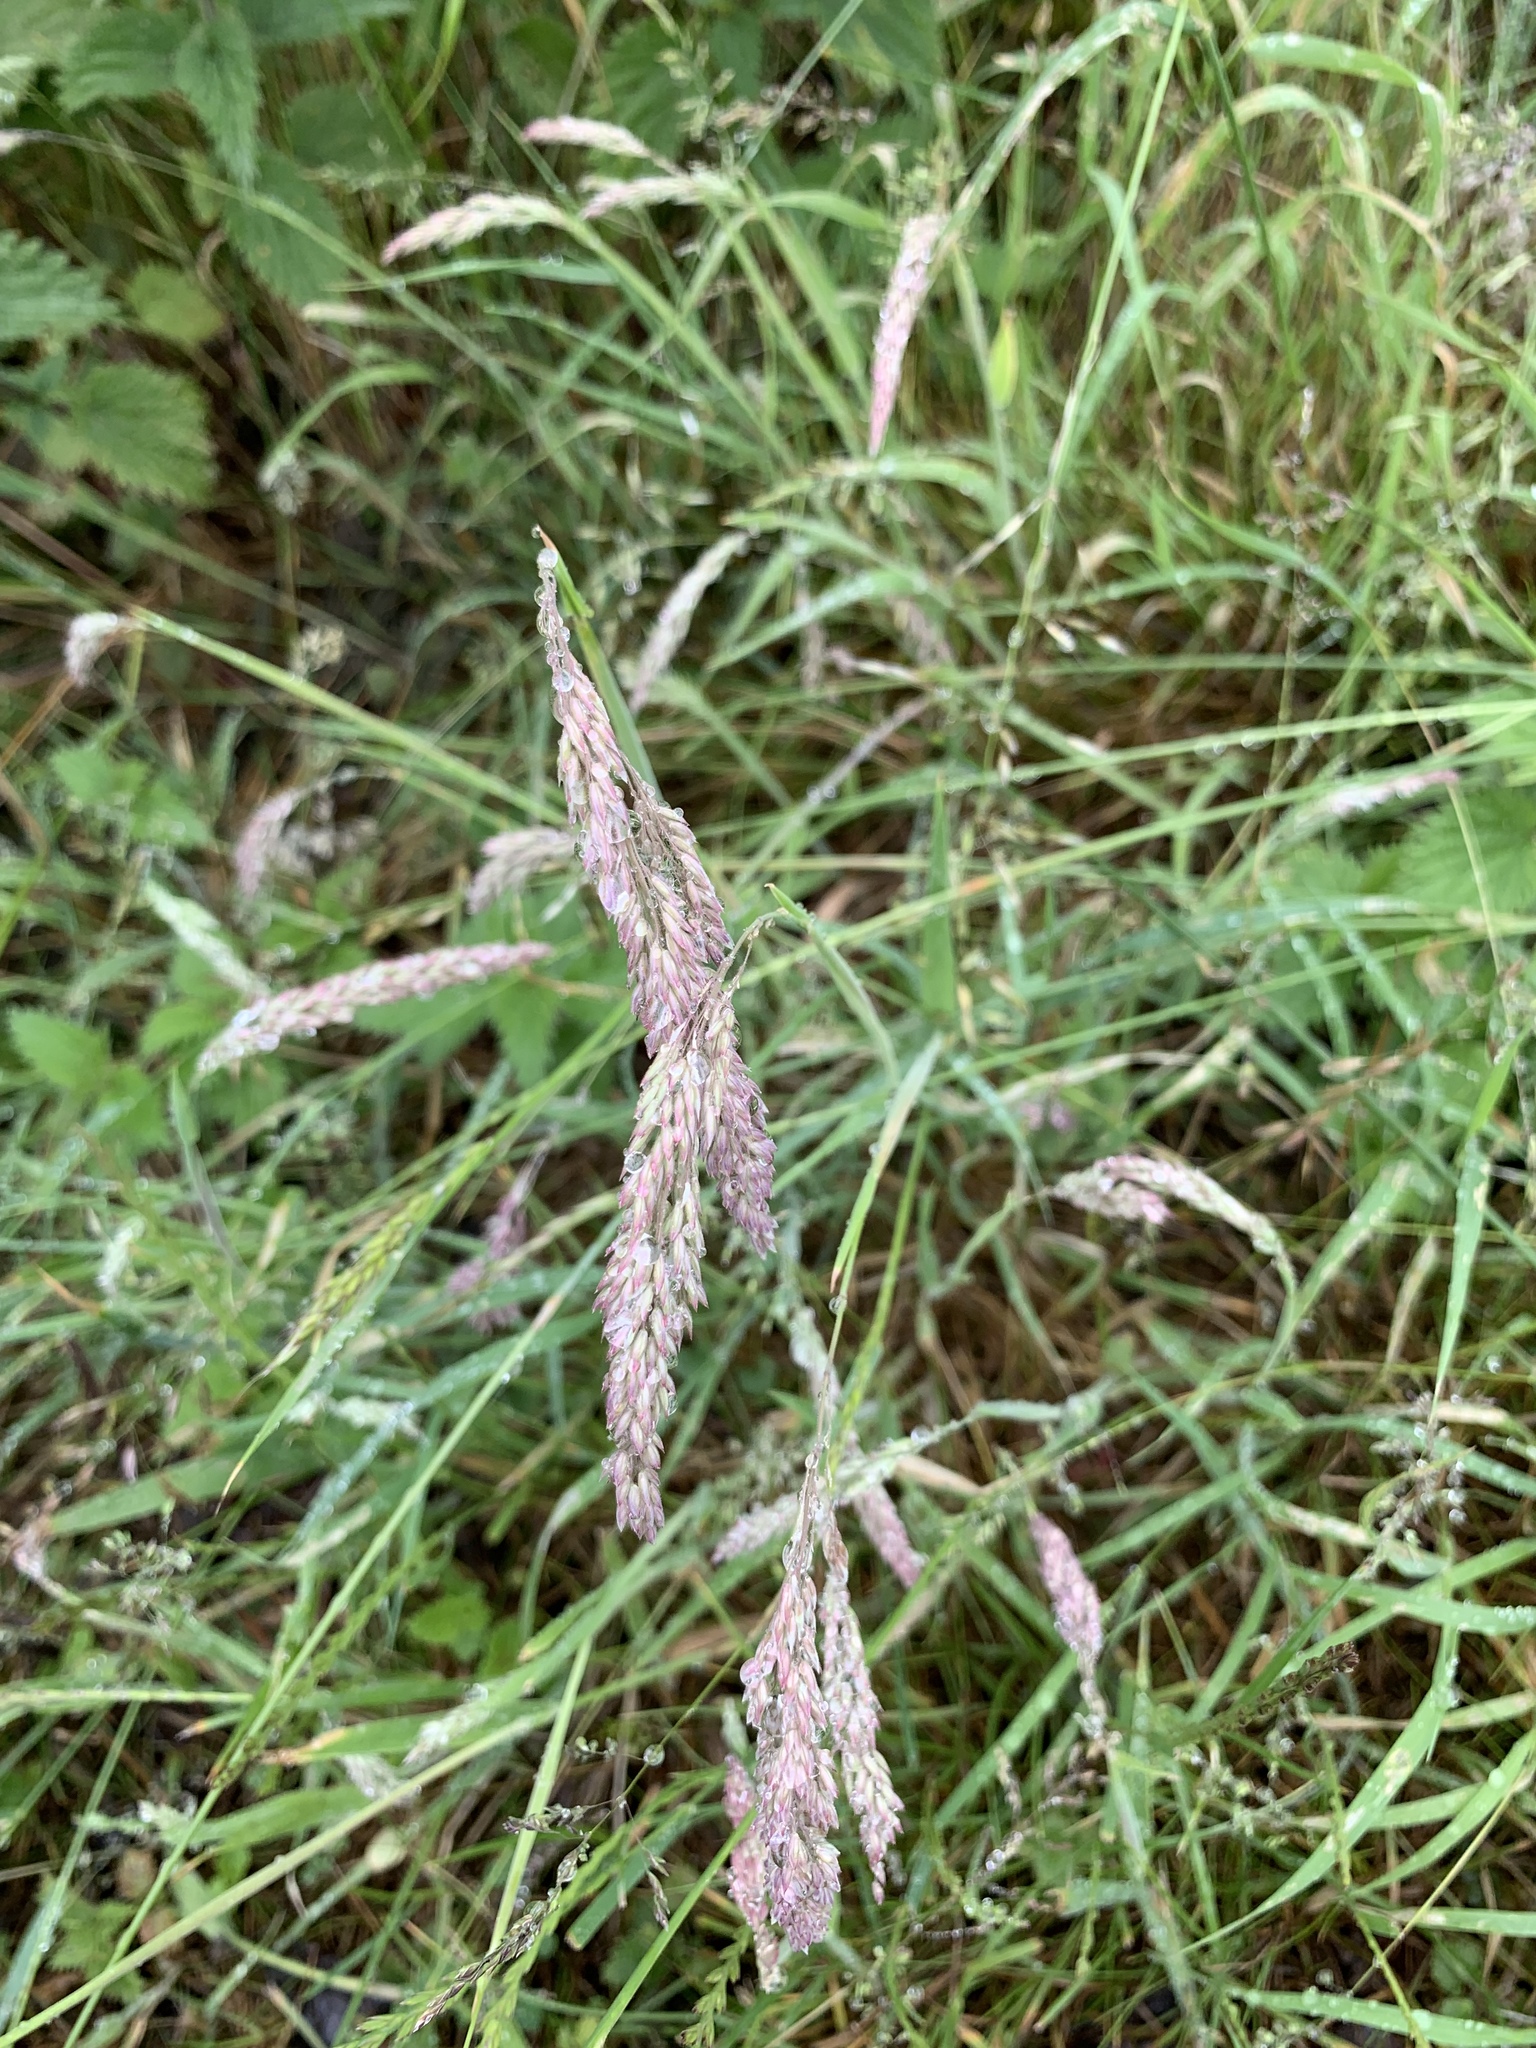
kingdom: Plantae
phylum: Tracheophyta
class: Liliopsida
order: Poales
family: Poaceae
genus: Holcus
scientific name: Holcus lanatus
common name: Yorkshire-fog
